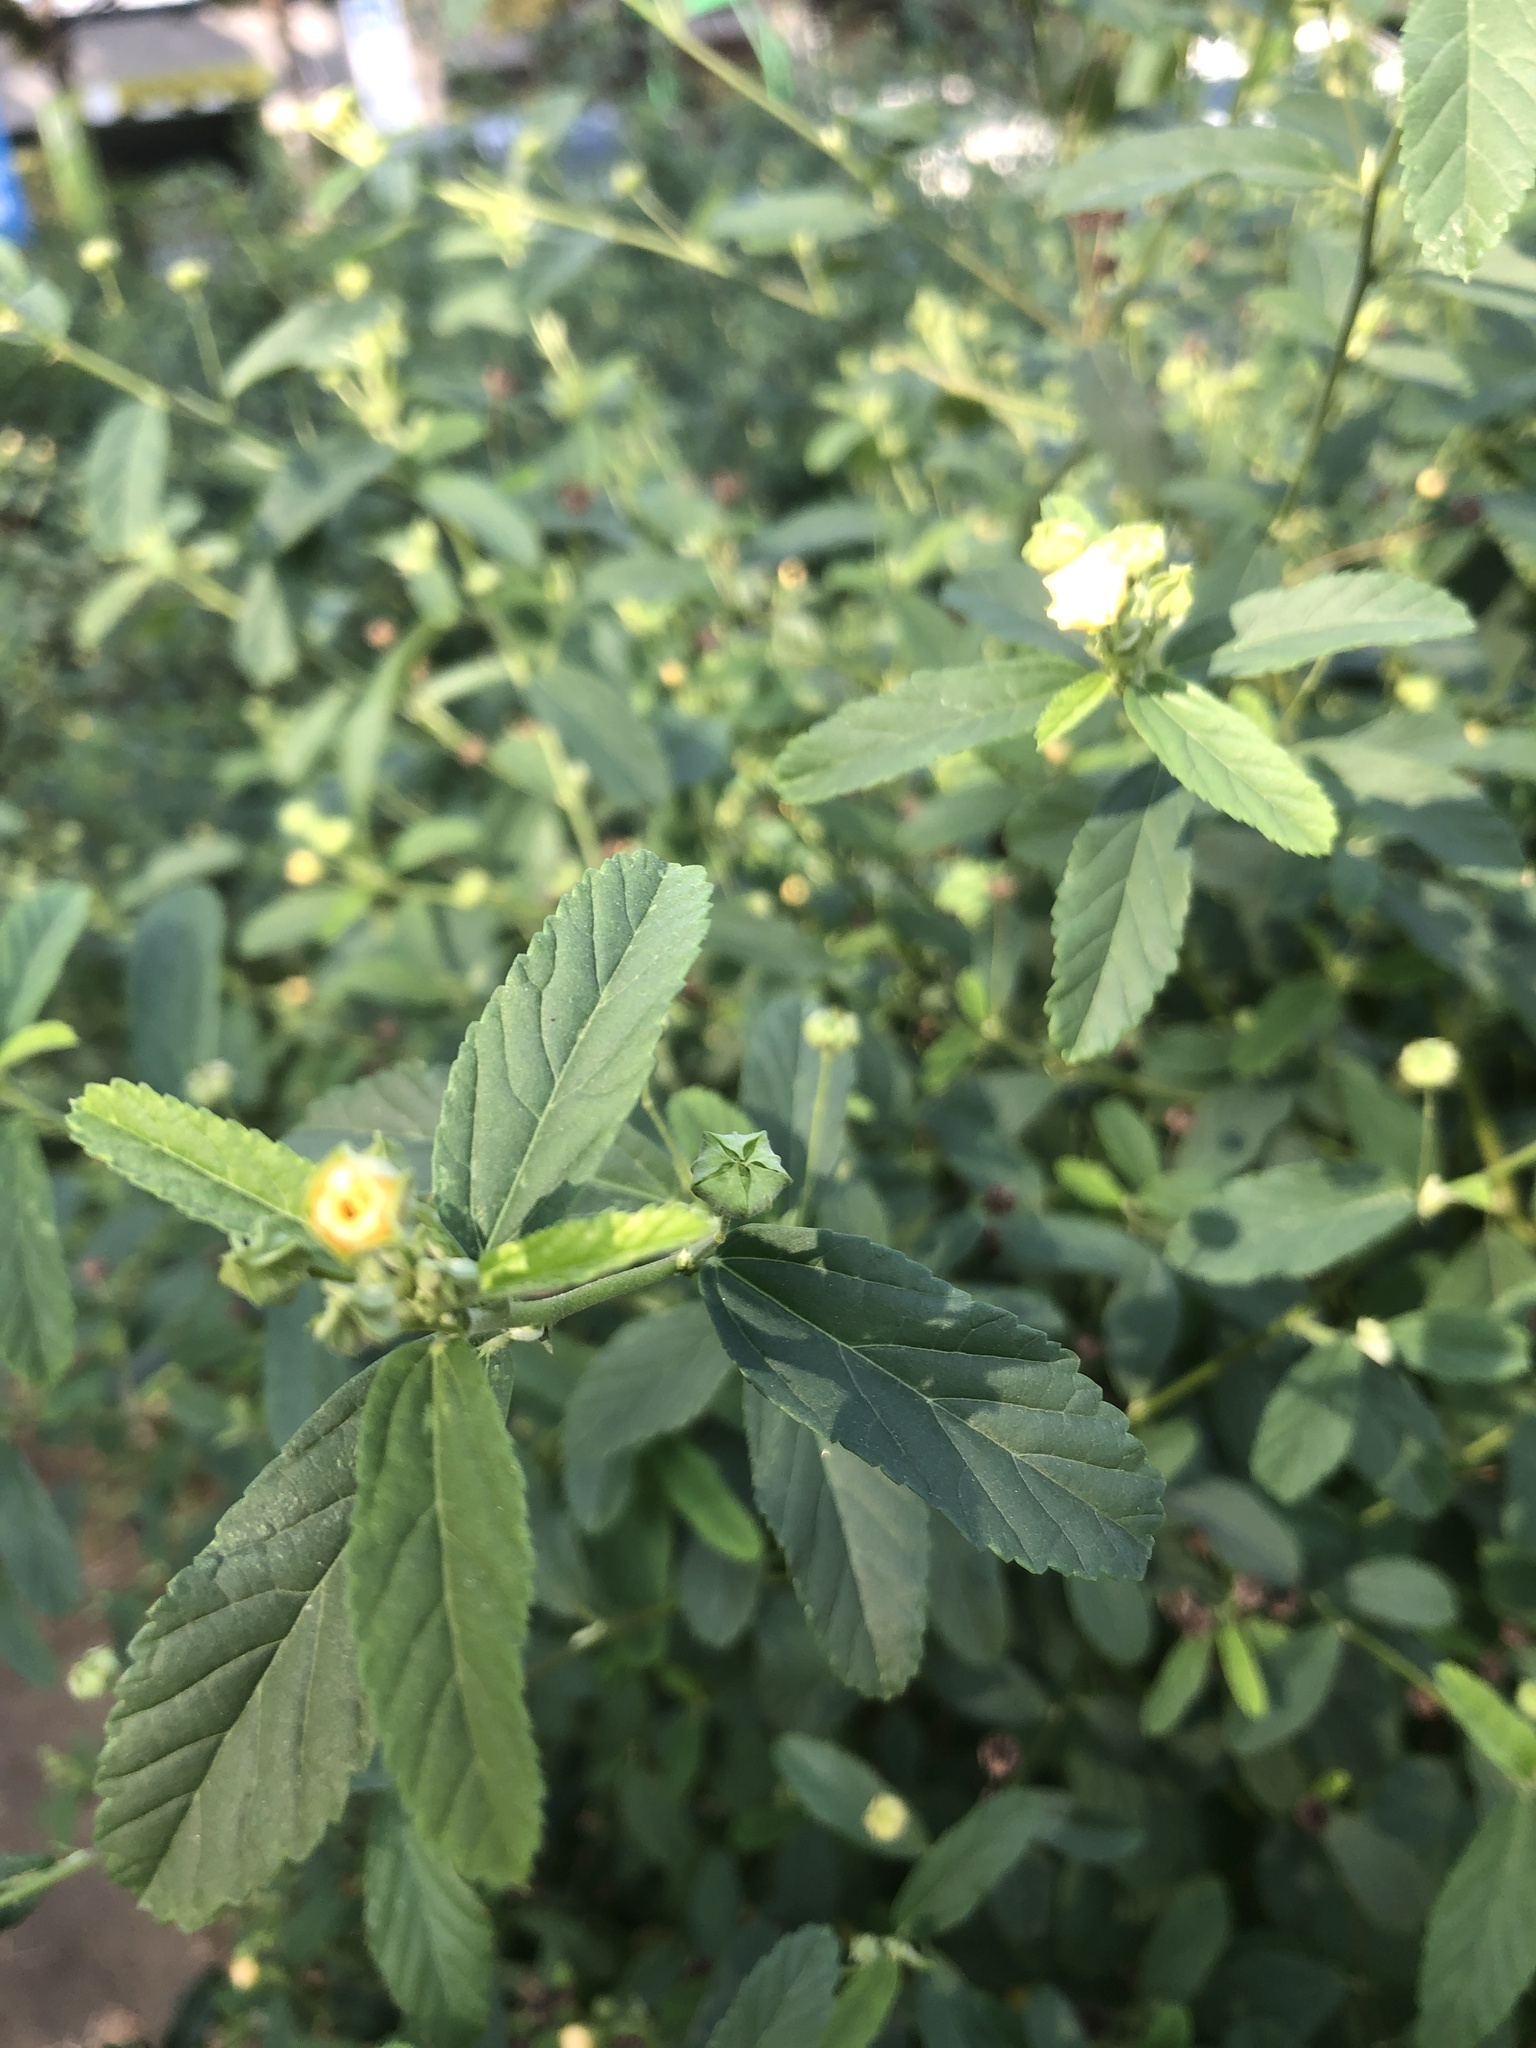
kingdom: Plantae
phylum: Tracheophyta
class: Magnoliopsida
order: Malvales
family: Malvaceae
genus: Sida
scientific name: Sida rhombifolia
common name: Queensland-hemp
